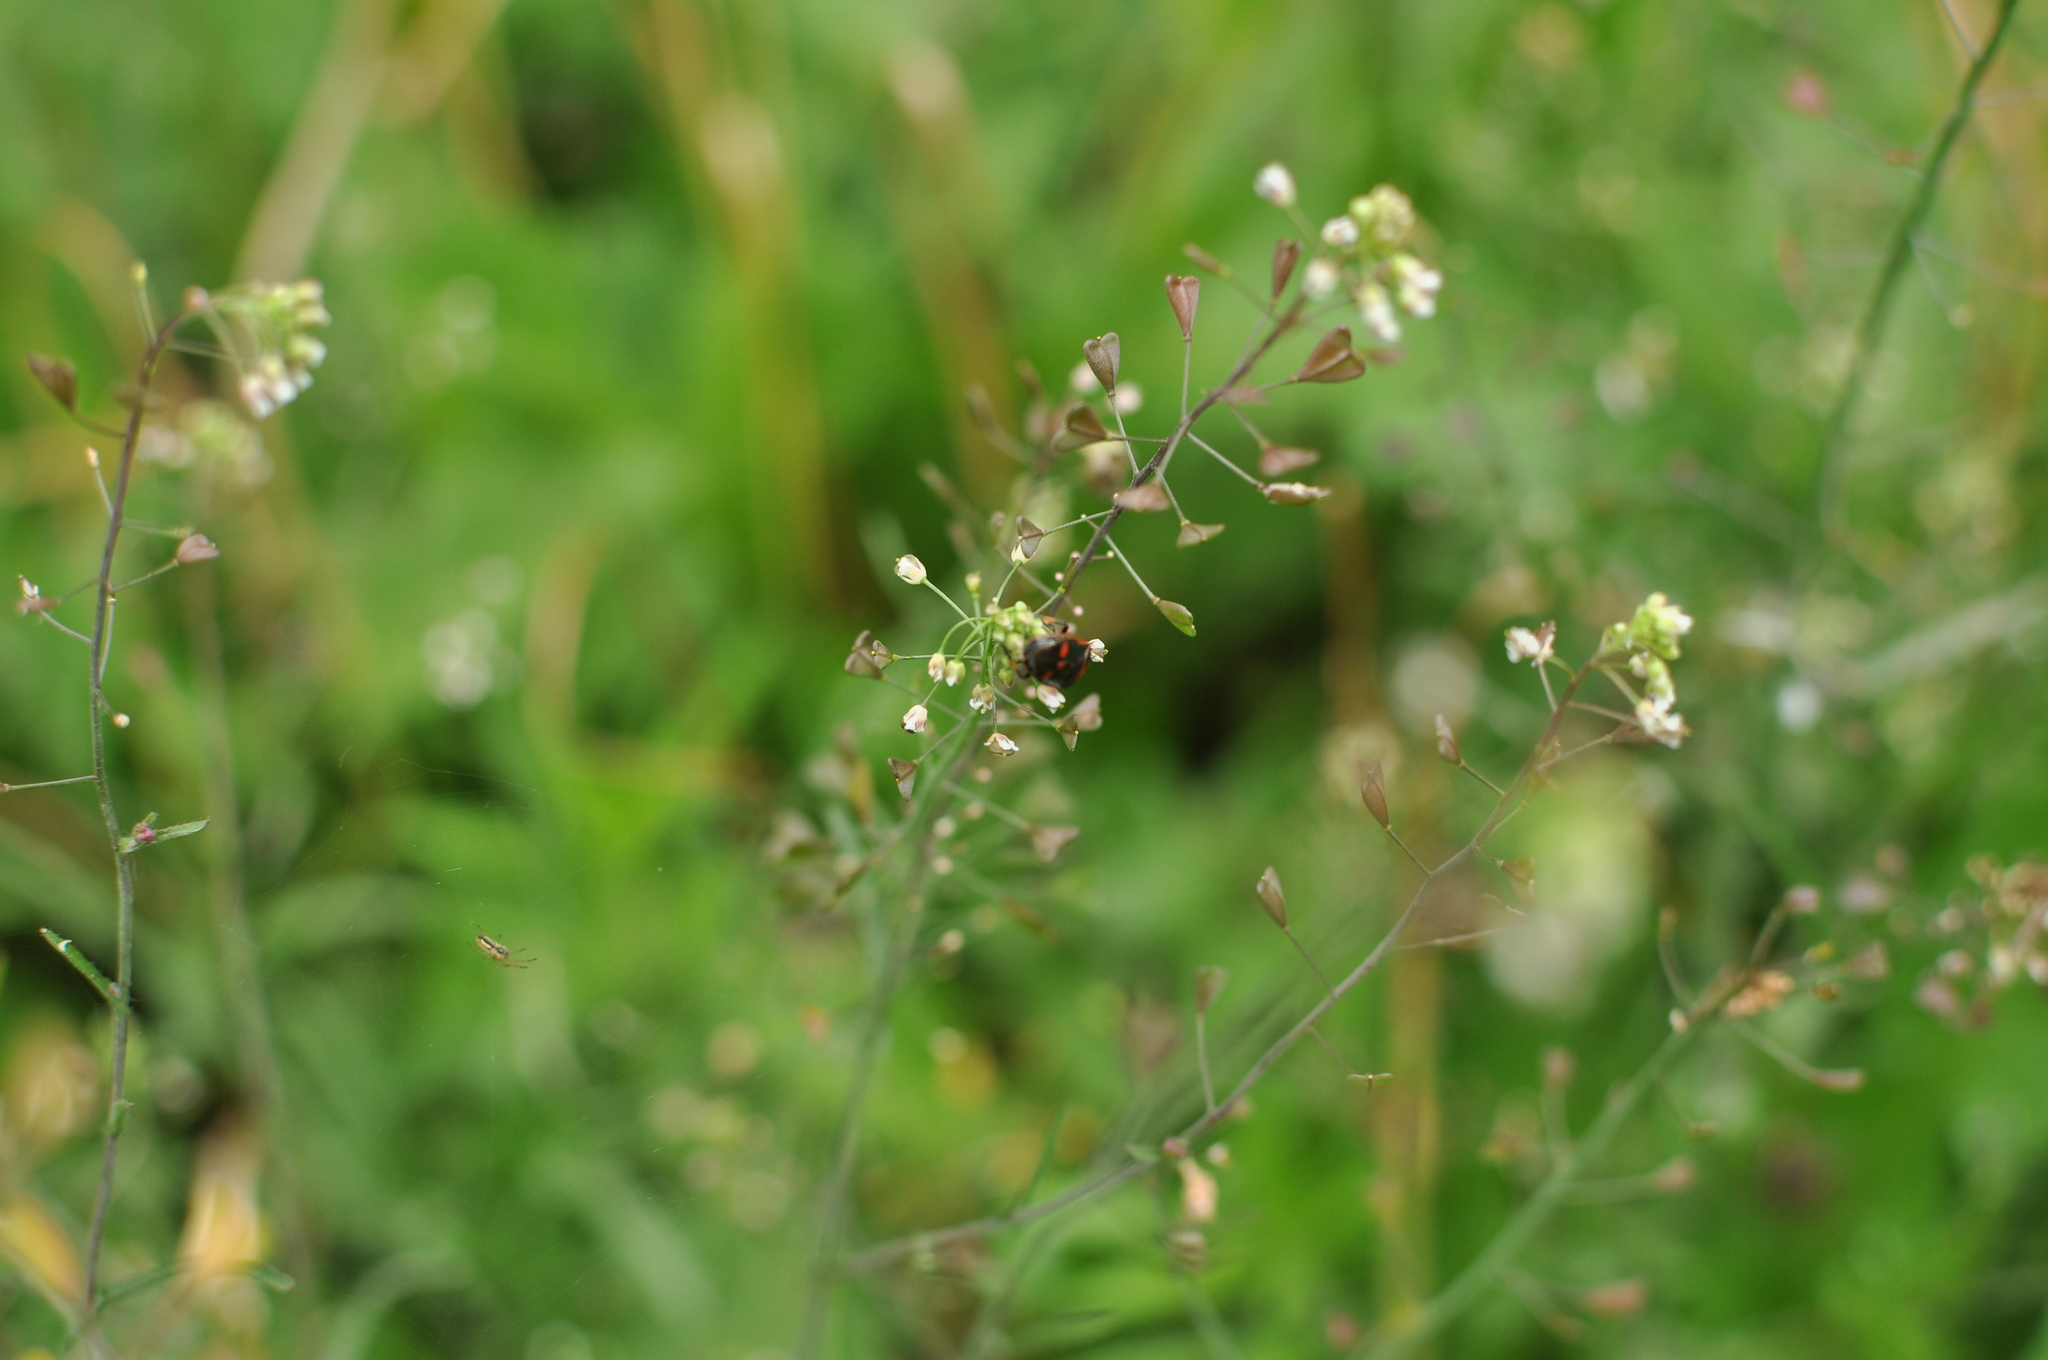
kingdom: Plantae
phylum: Tracheophyta
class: Magnoliopsida
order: Brassicales
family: Brassicaceae
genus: Capsella
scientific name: Capsella bursa-pastoris
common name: Shepherd's purse
